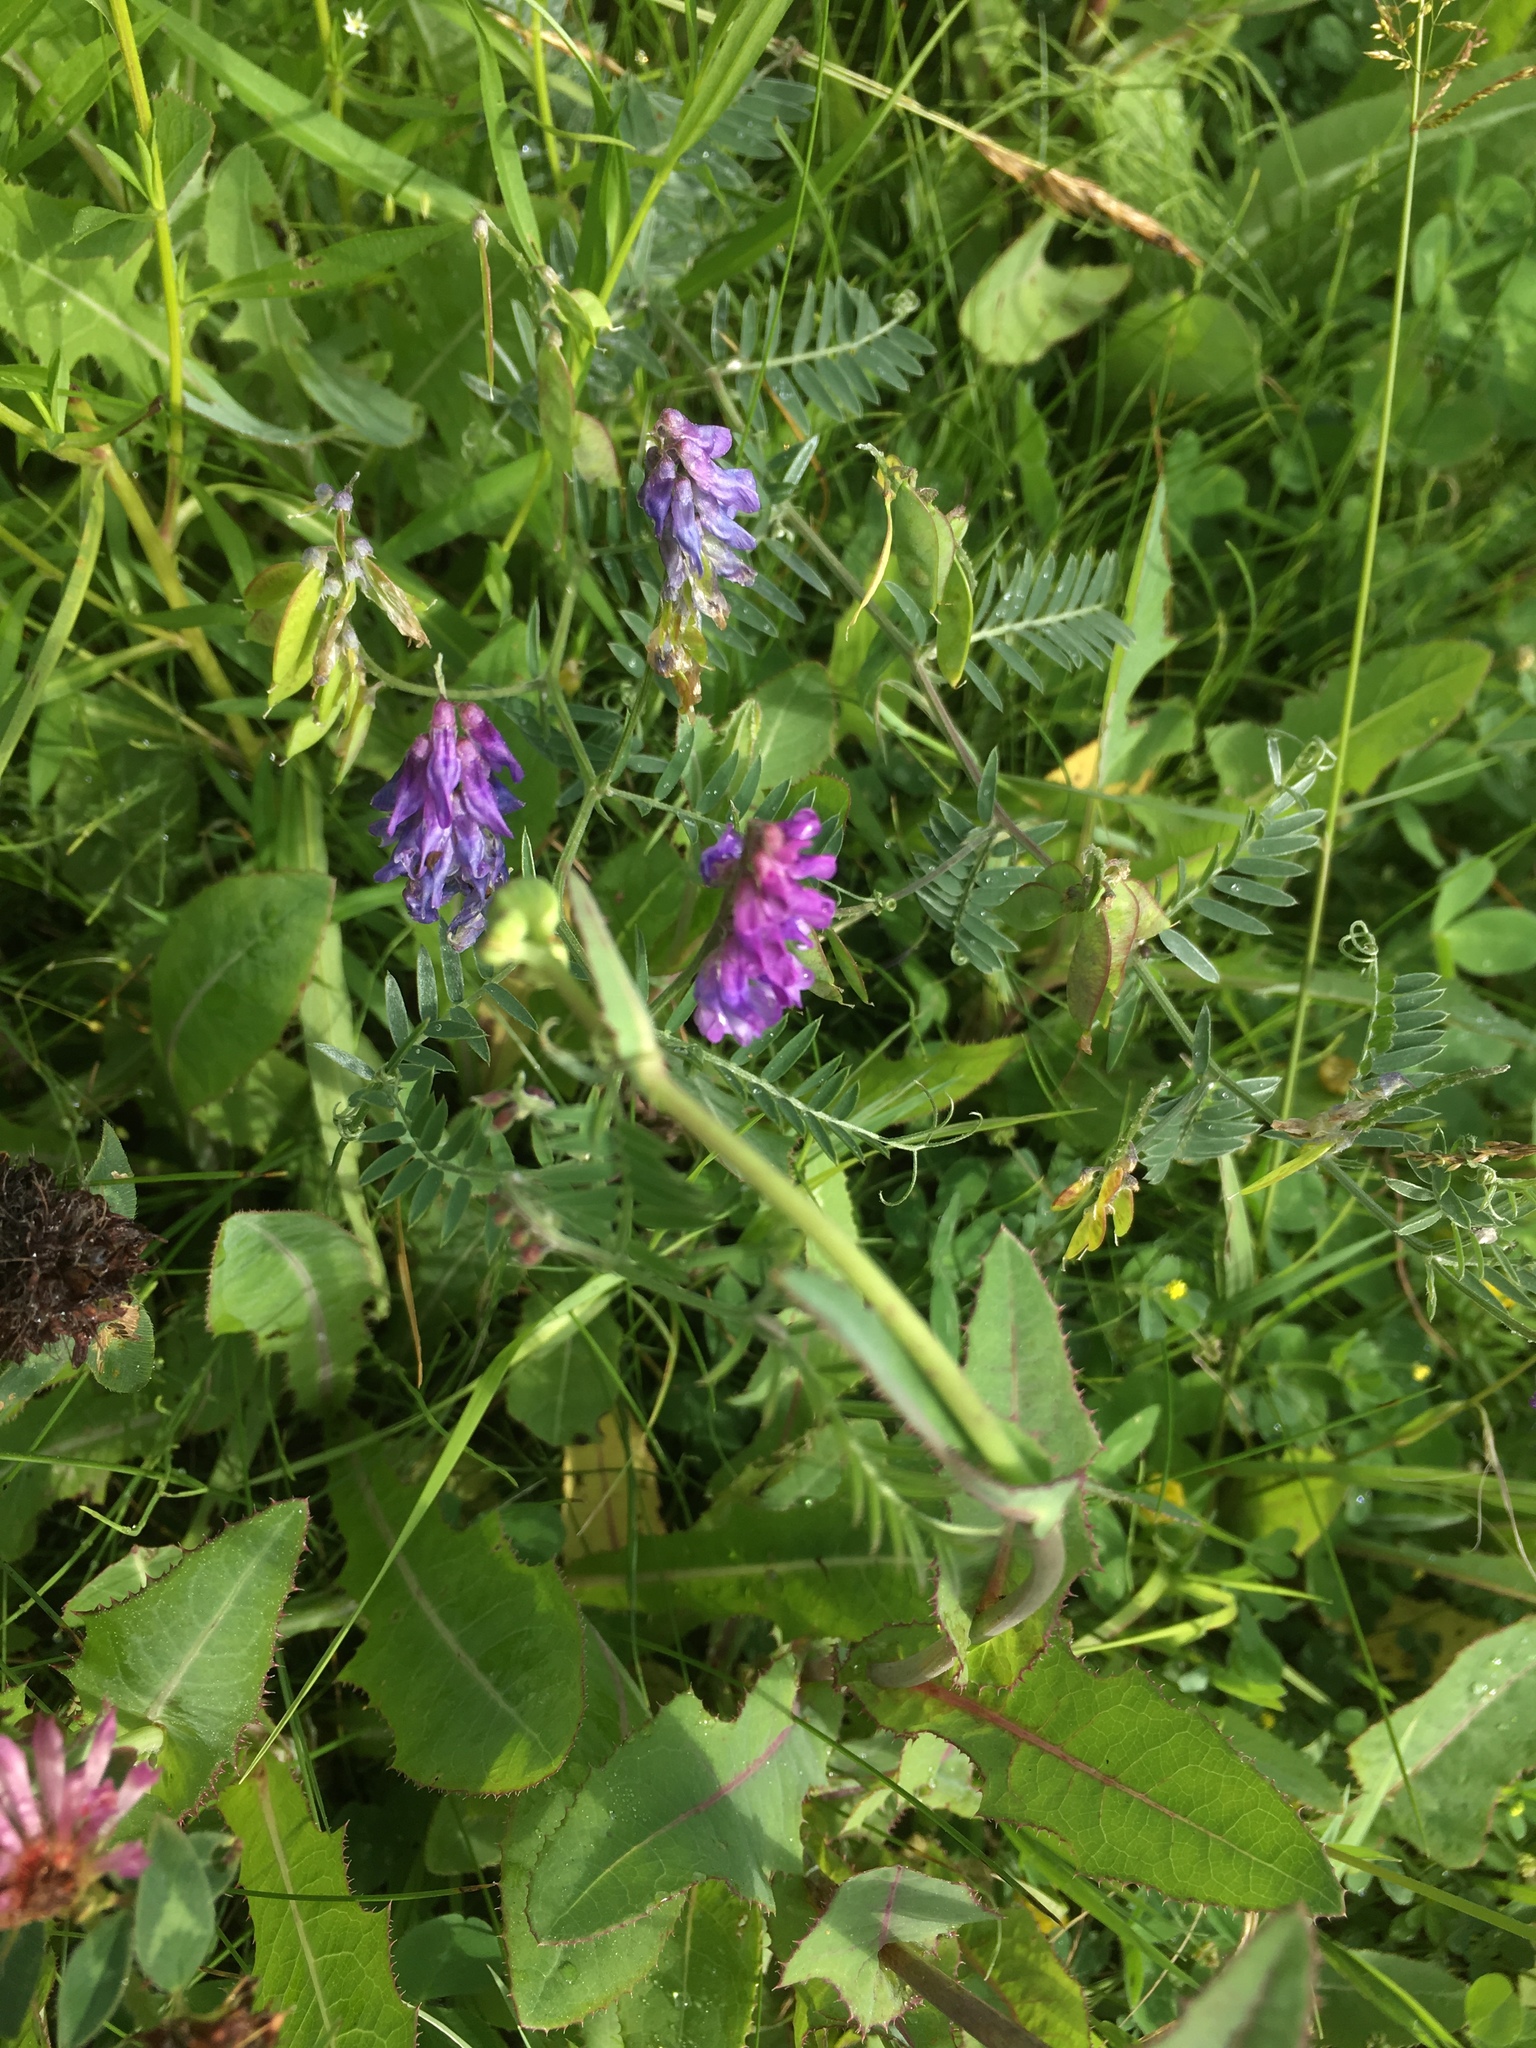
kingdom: Plantae
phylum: Tracheophyta
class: Magnoliopsida
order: Fabales
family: Fabaceae
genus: Vicia
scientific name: Vicia cracca
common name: Bird vetch
